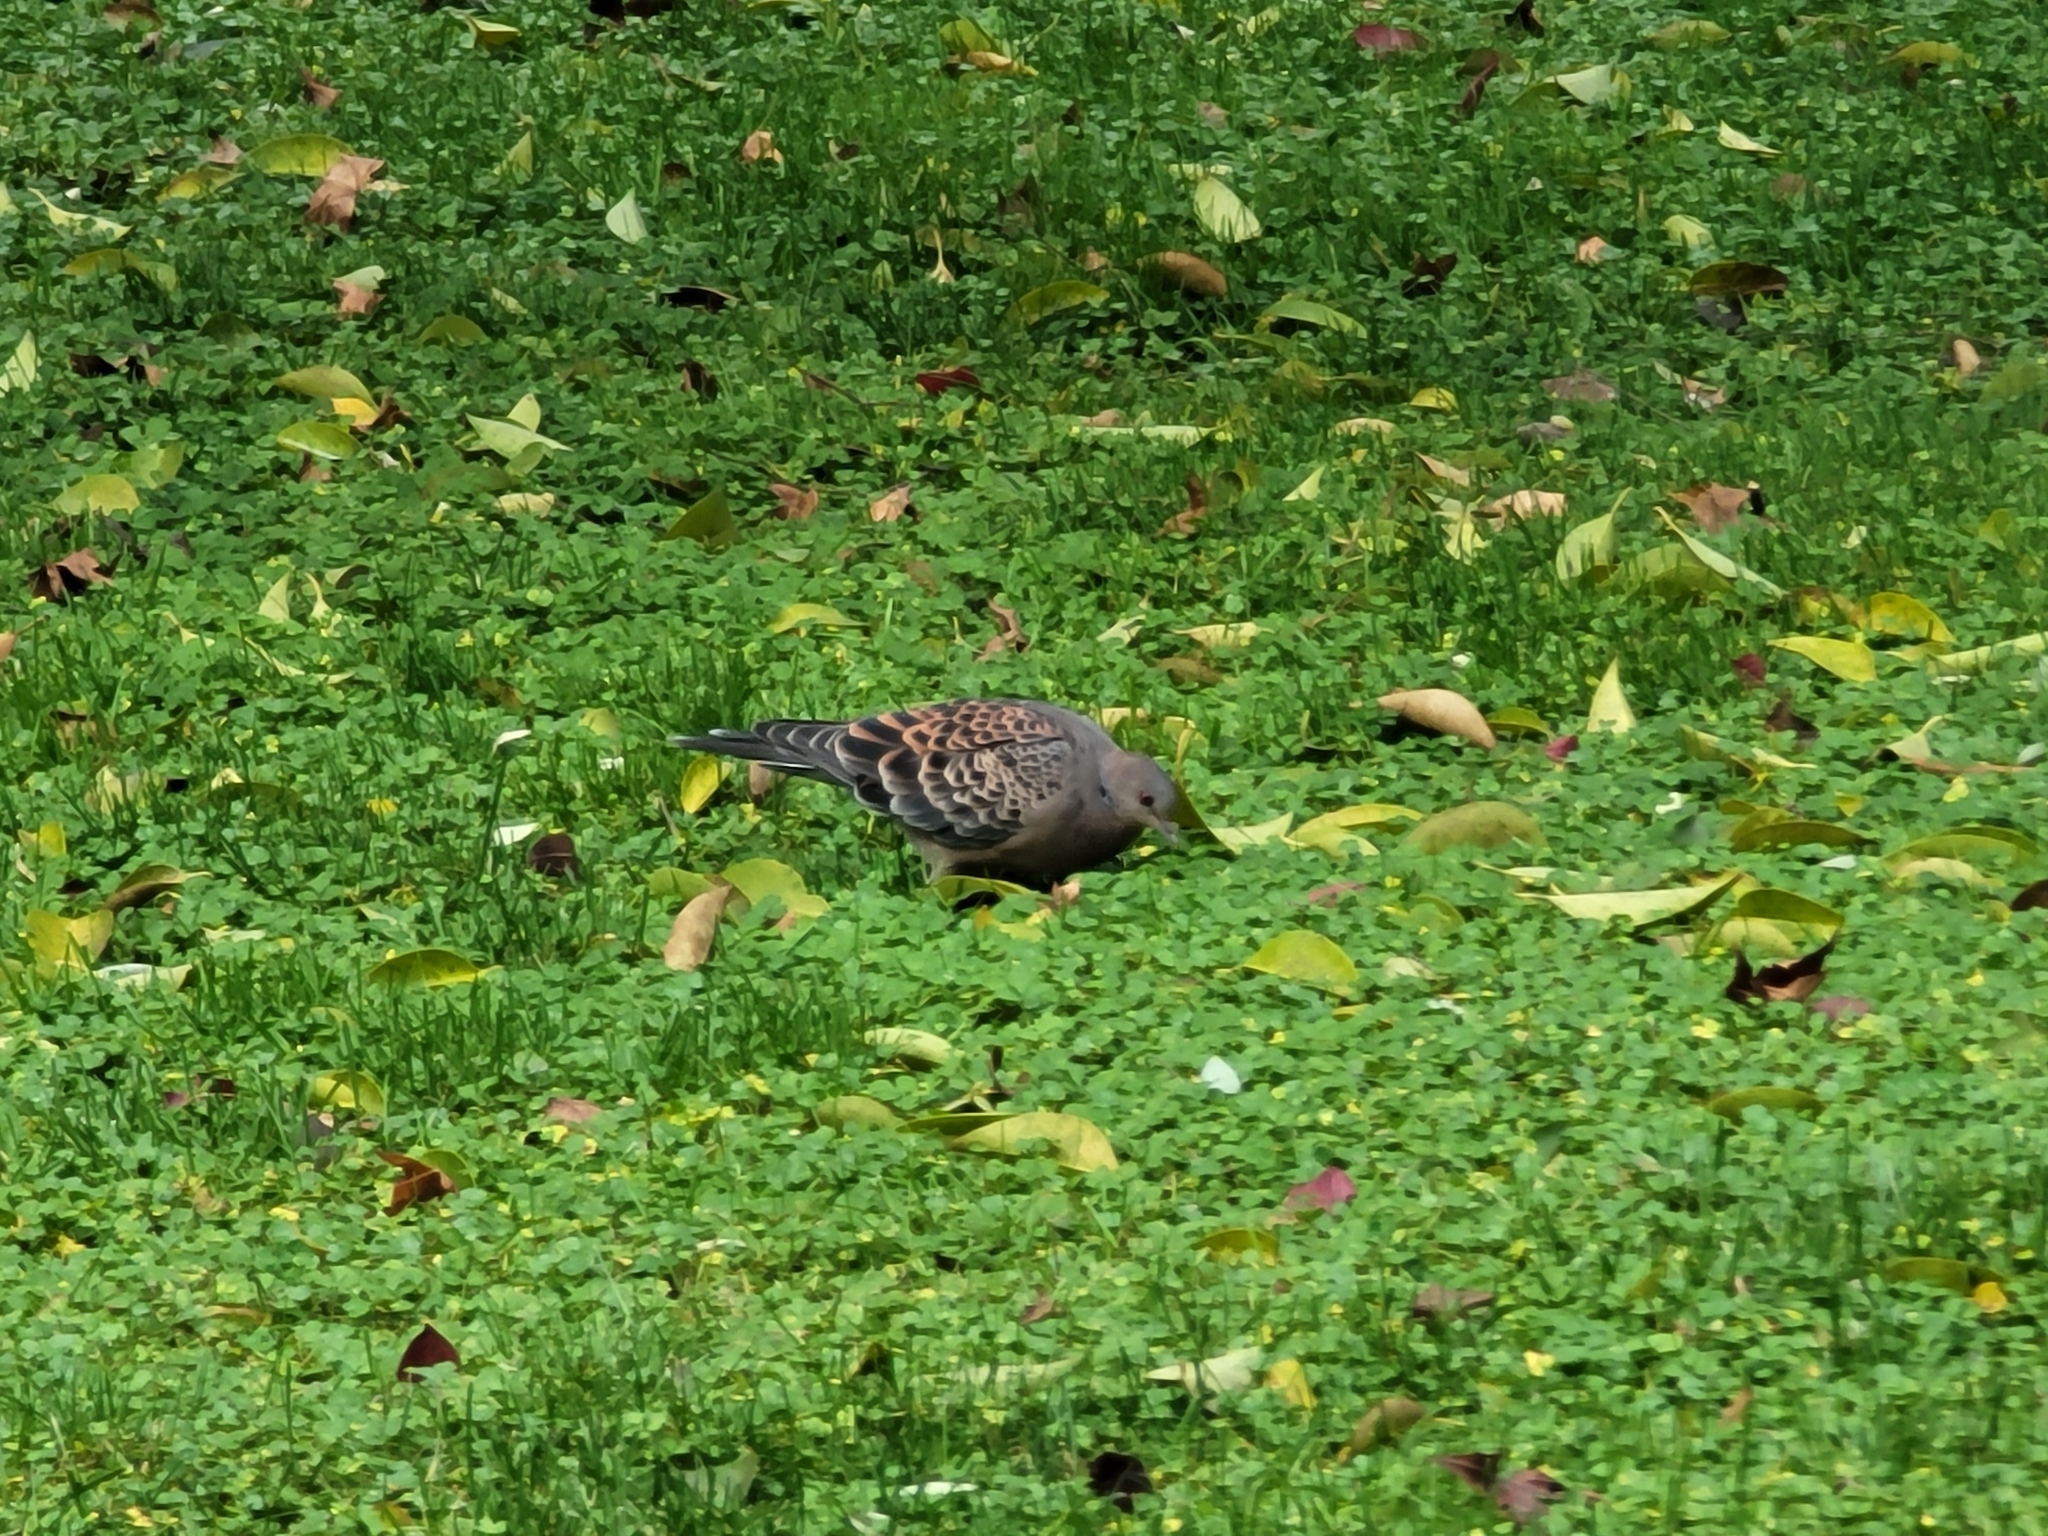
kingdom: Animalia
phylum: Chordata
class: Aves
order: Columbiformes
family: Columbidae
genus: Streptopelia
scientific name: Streptopelia orientalis
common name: Oriental turtle dove
